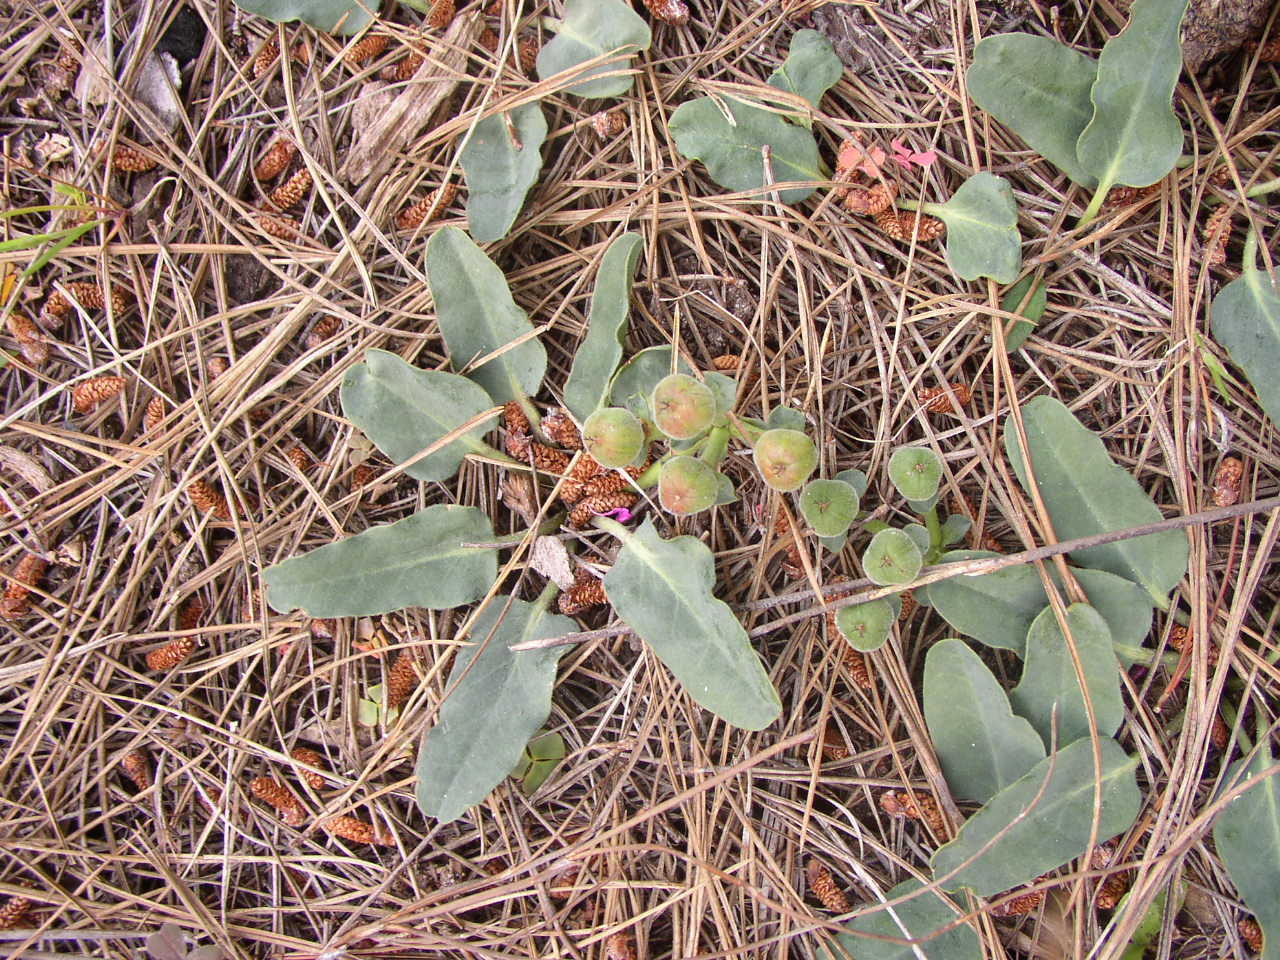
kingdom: Plantae
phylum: Tracheophyta
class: Magnoliopsida
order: Malpighiales
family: Euphorbiaceae
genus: Euphorbia
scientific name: Euphorbia tuberosa
